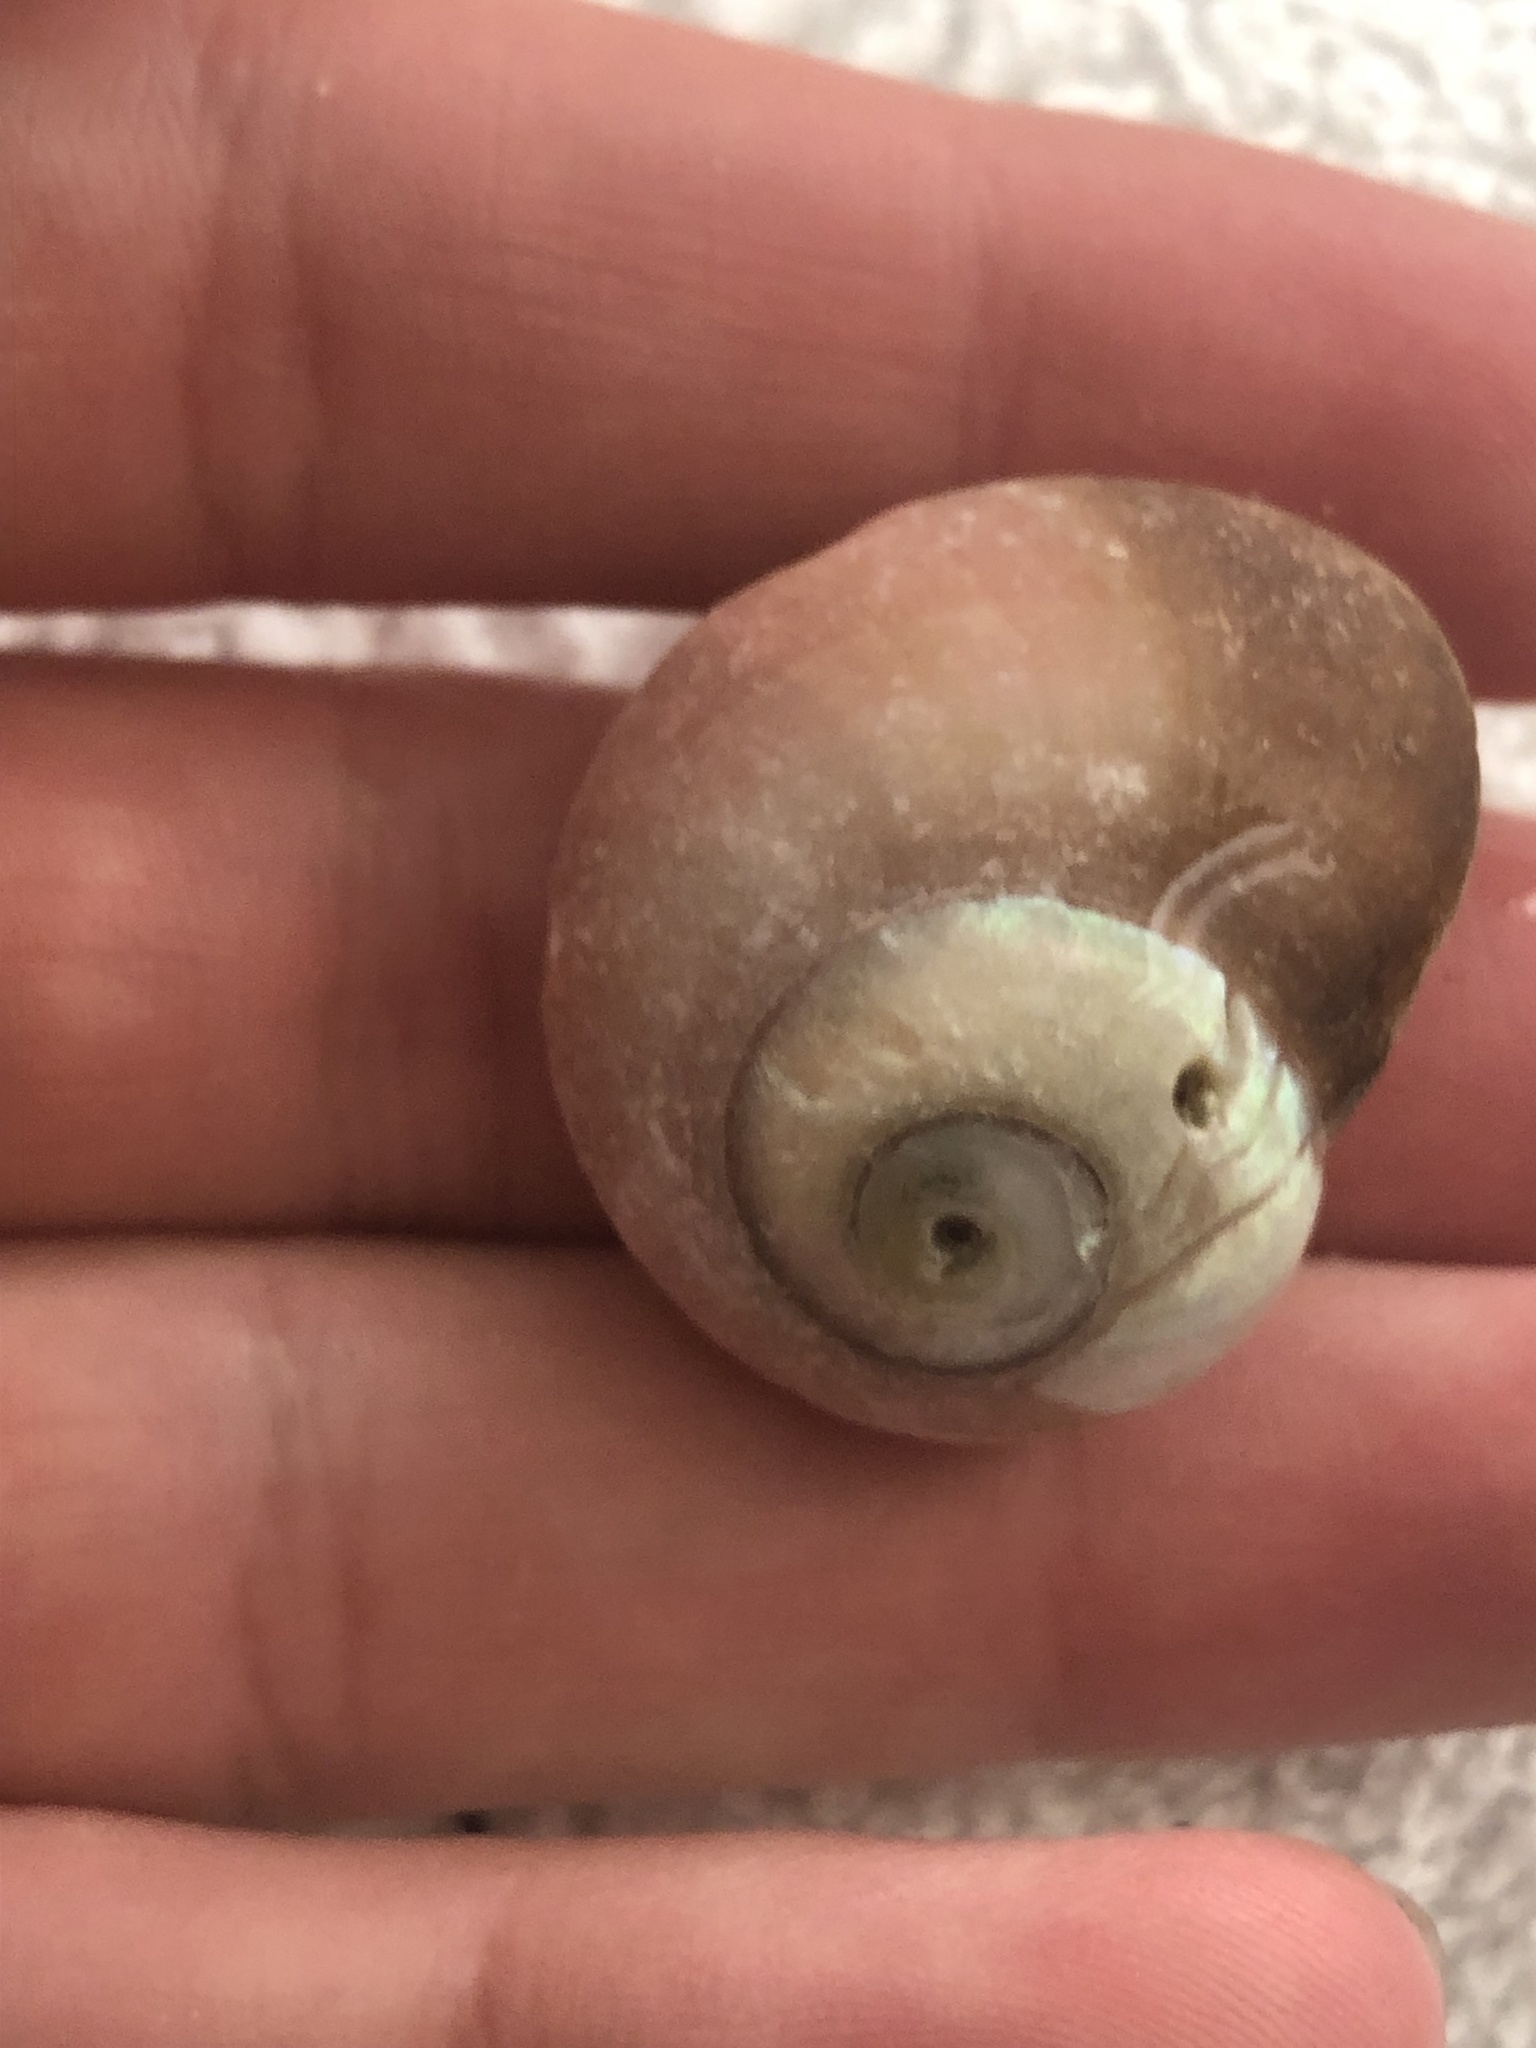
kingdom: Animalia
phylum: Mollusca
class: Gastropoda
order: Trochida
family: Tegulidae
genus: Norrisia
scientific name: Norrisia norrisii
